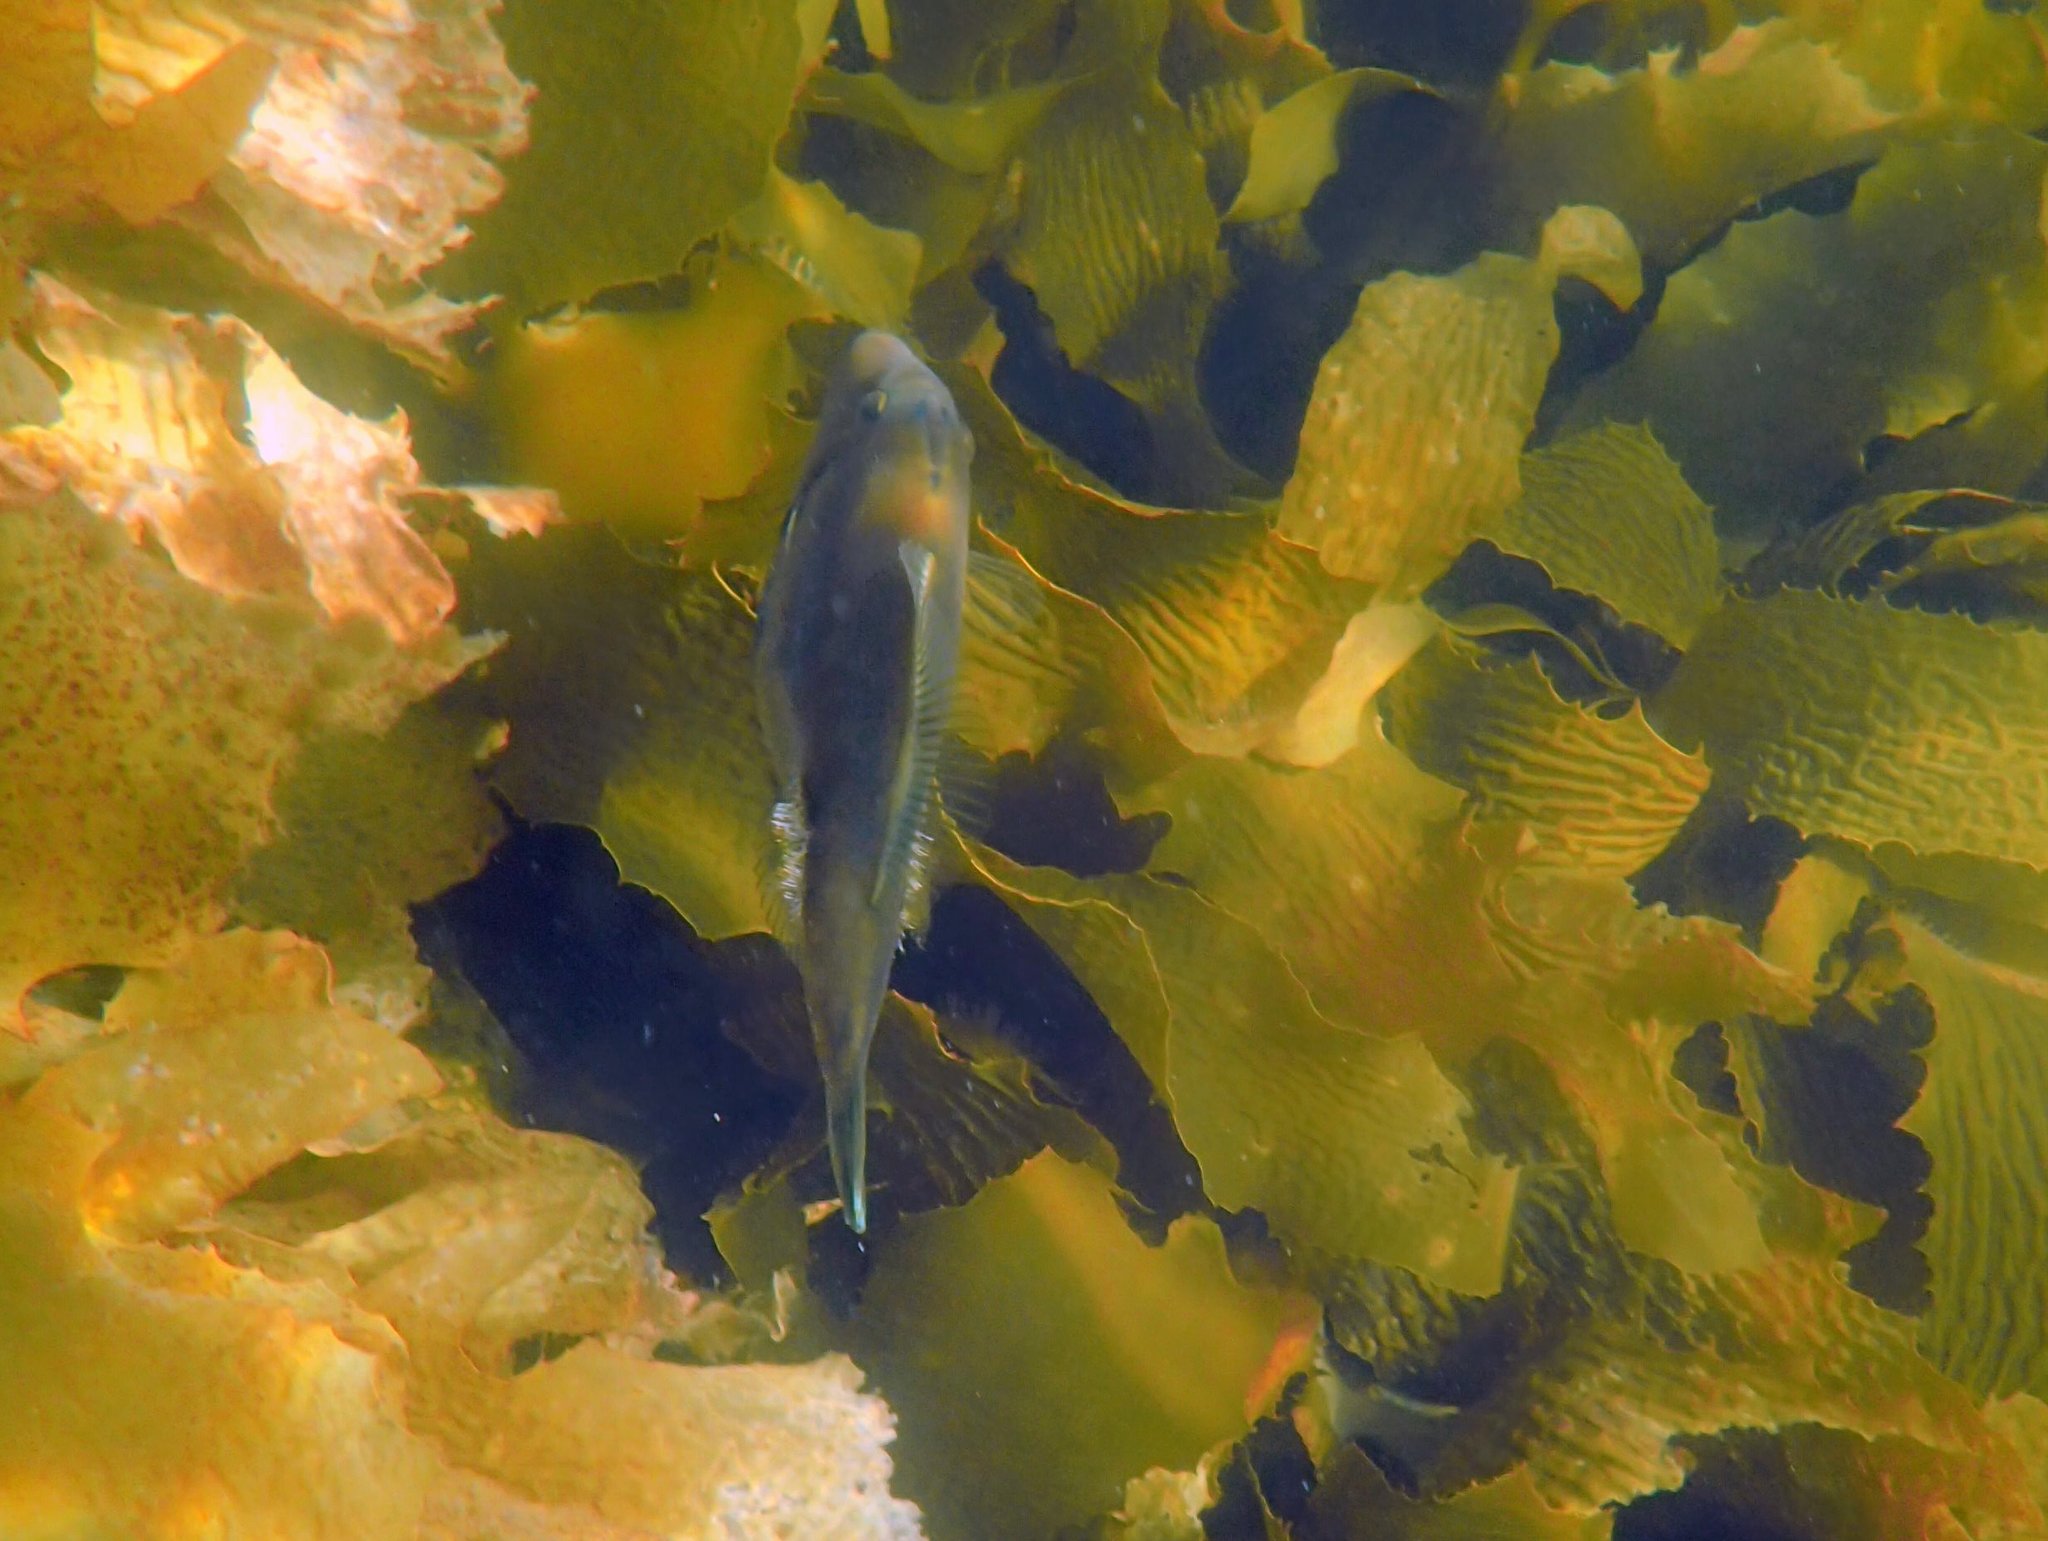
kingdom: Animalia
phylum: Chordata
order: Tetraodontiformes
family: Monacanthidae
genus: Acanthaluteres
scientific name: Acanthaluteres vittiger
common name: Brown leatherjacket
